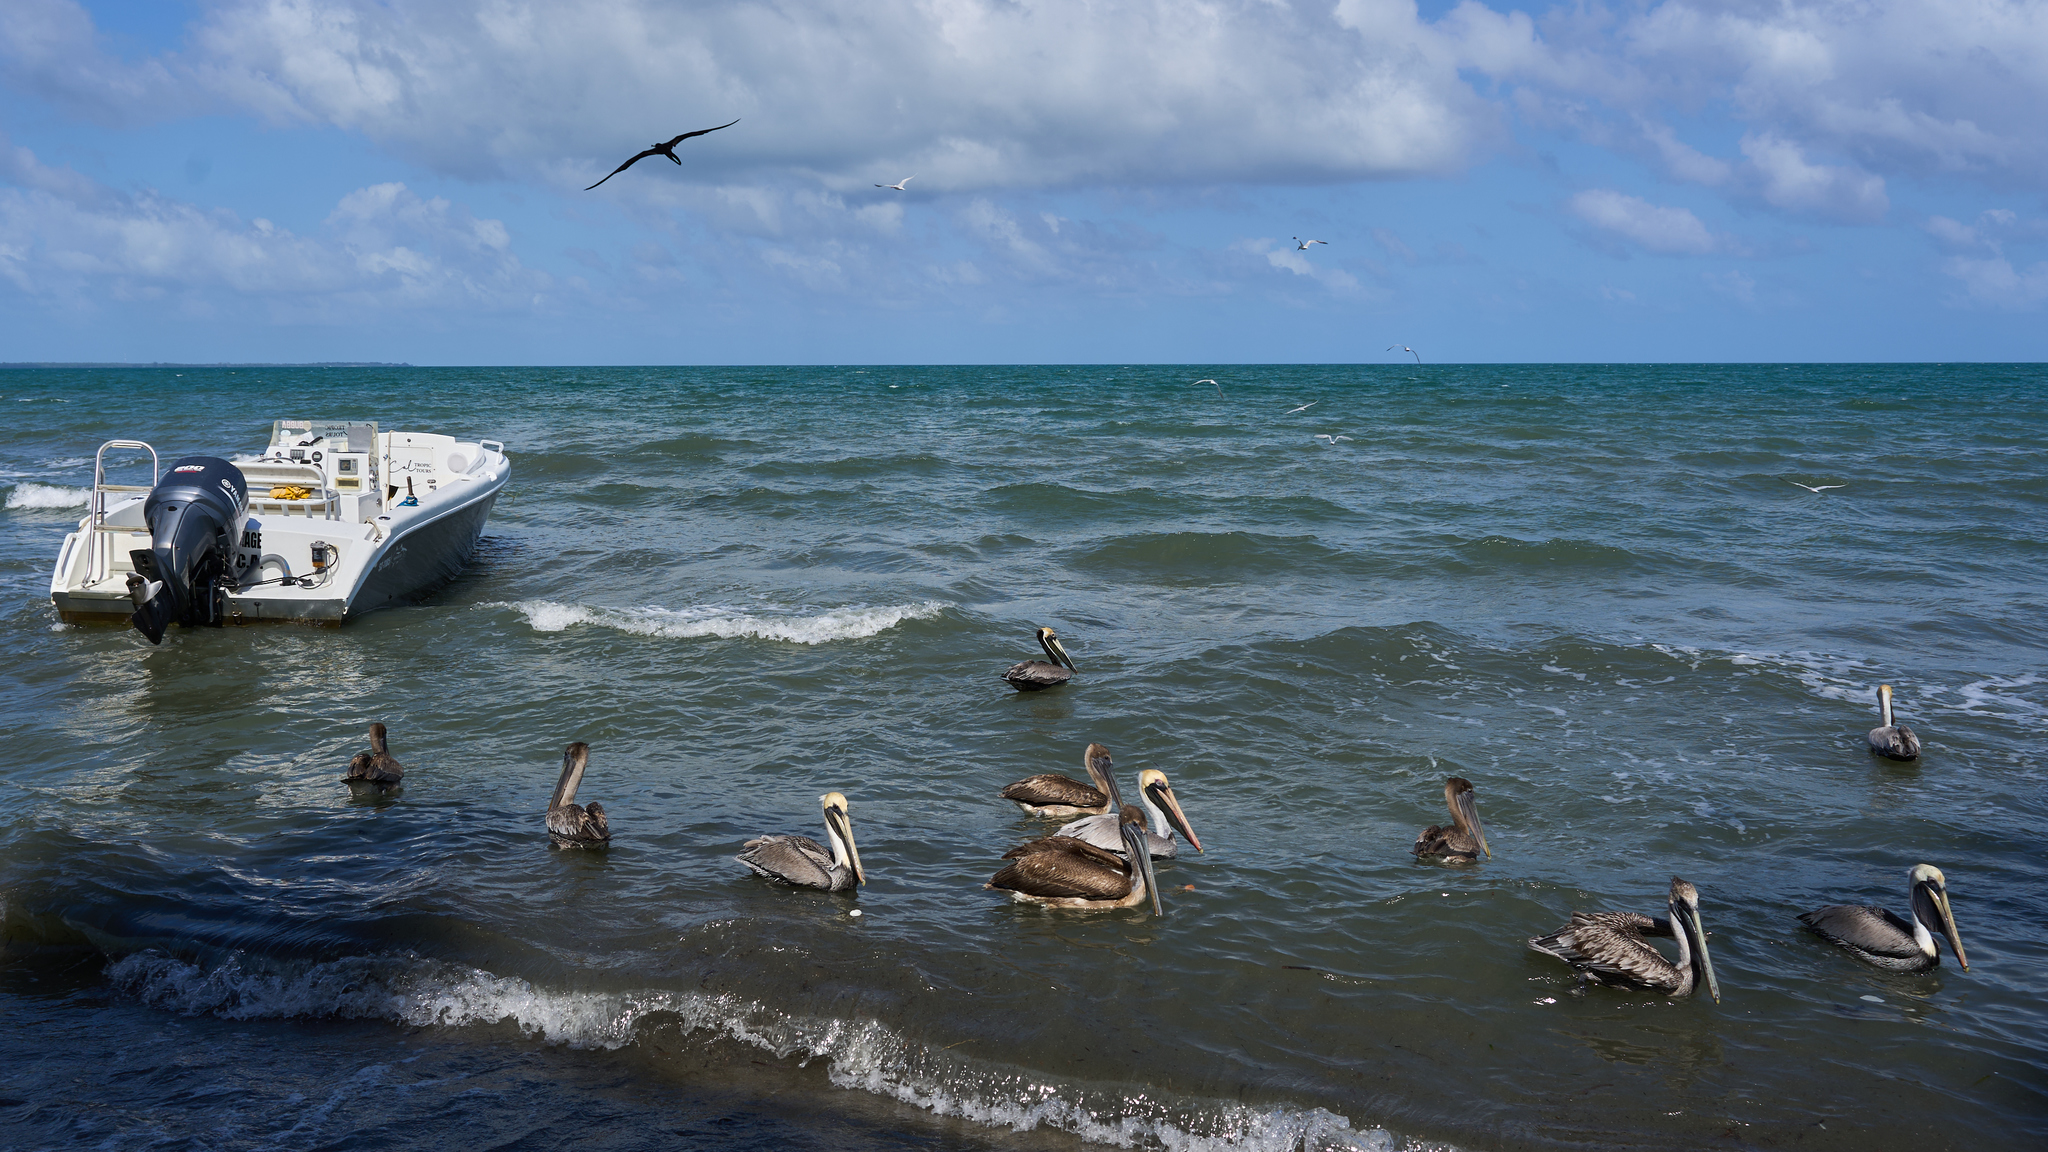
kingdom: Animalia
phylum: Chordata
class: Aves
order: Pelecaniformes
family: Pelecanidae
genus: Pelecanus
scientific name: Pelecanus occidentalis
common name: Brown pelican
